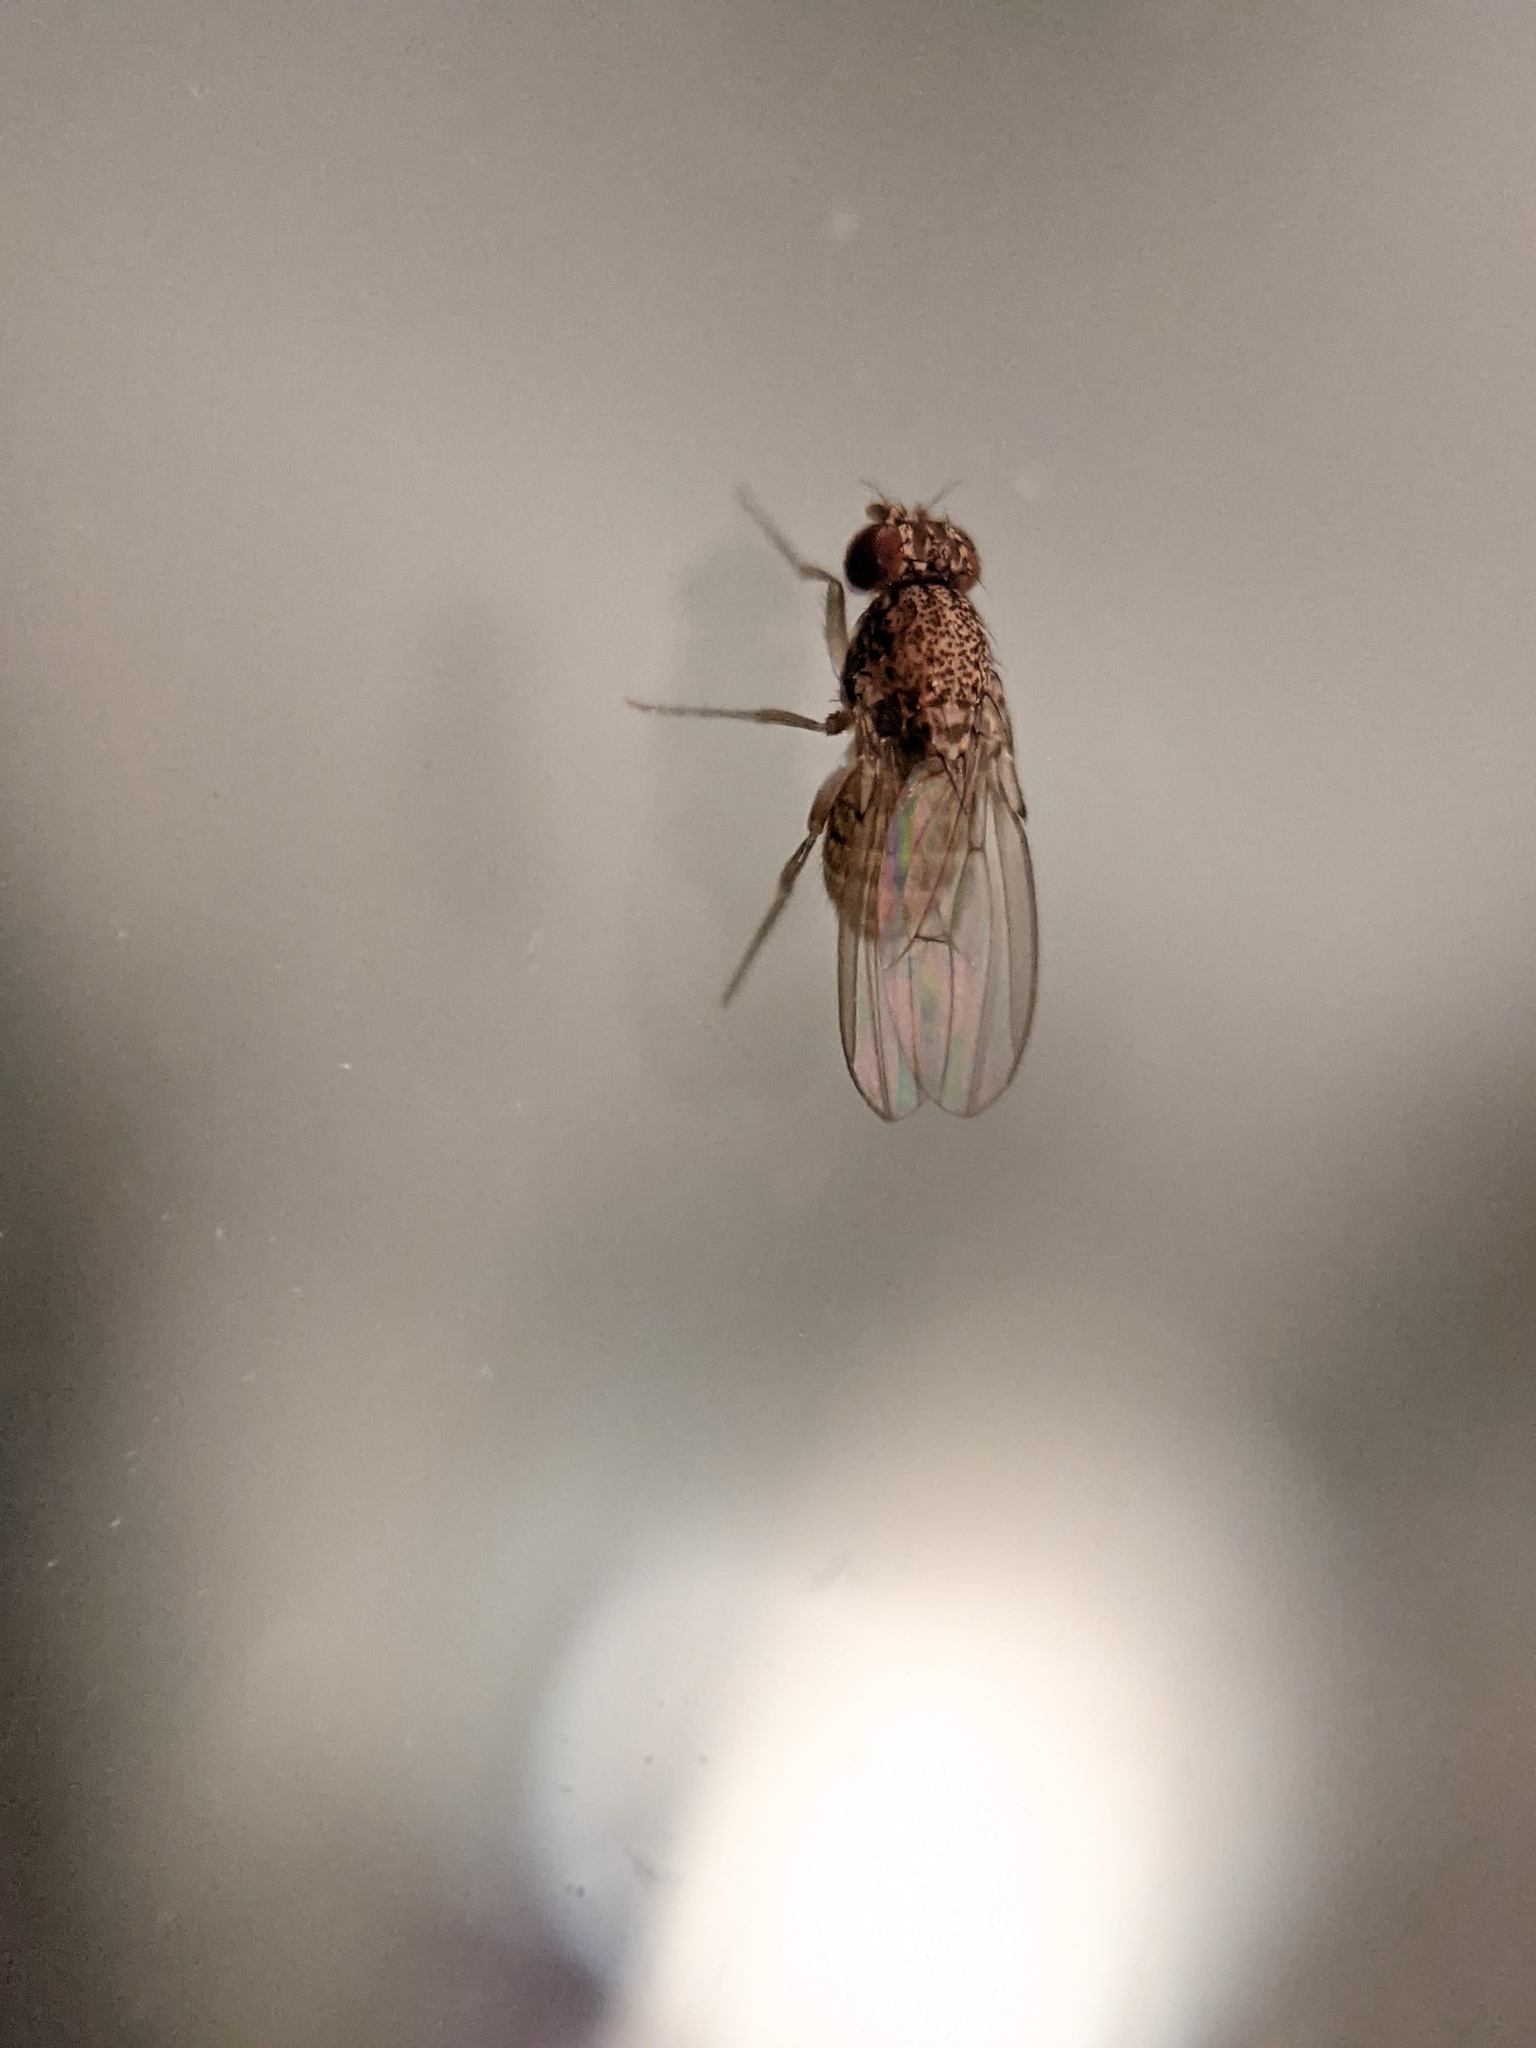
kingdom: Animalia
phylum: Arthropoda
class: Insecta
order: Diptera
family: Drosophilidae
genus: Drosophila
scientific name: Drosophila repleta
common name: Pomace fly
